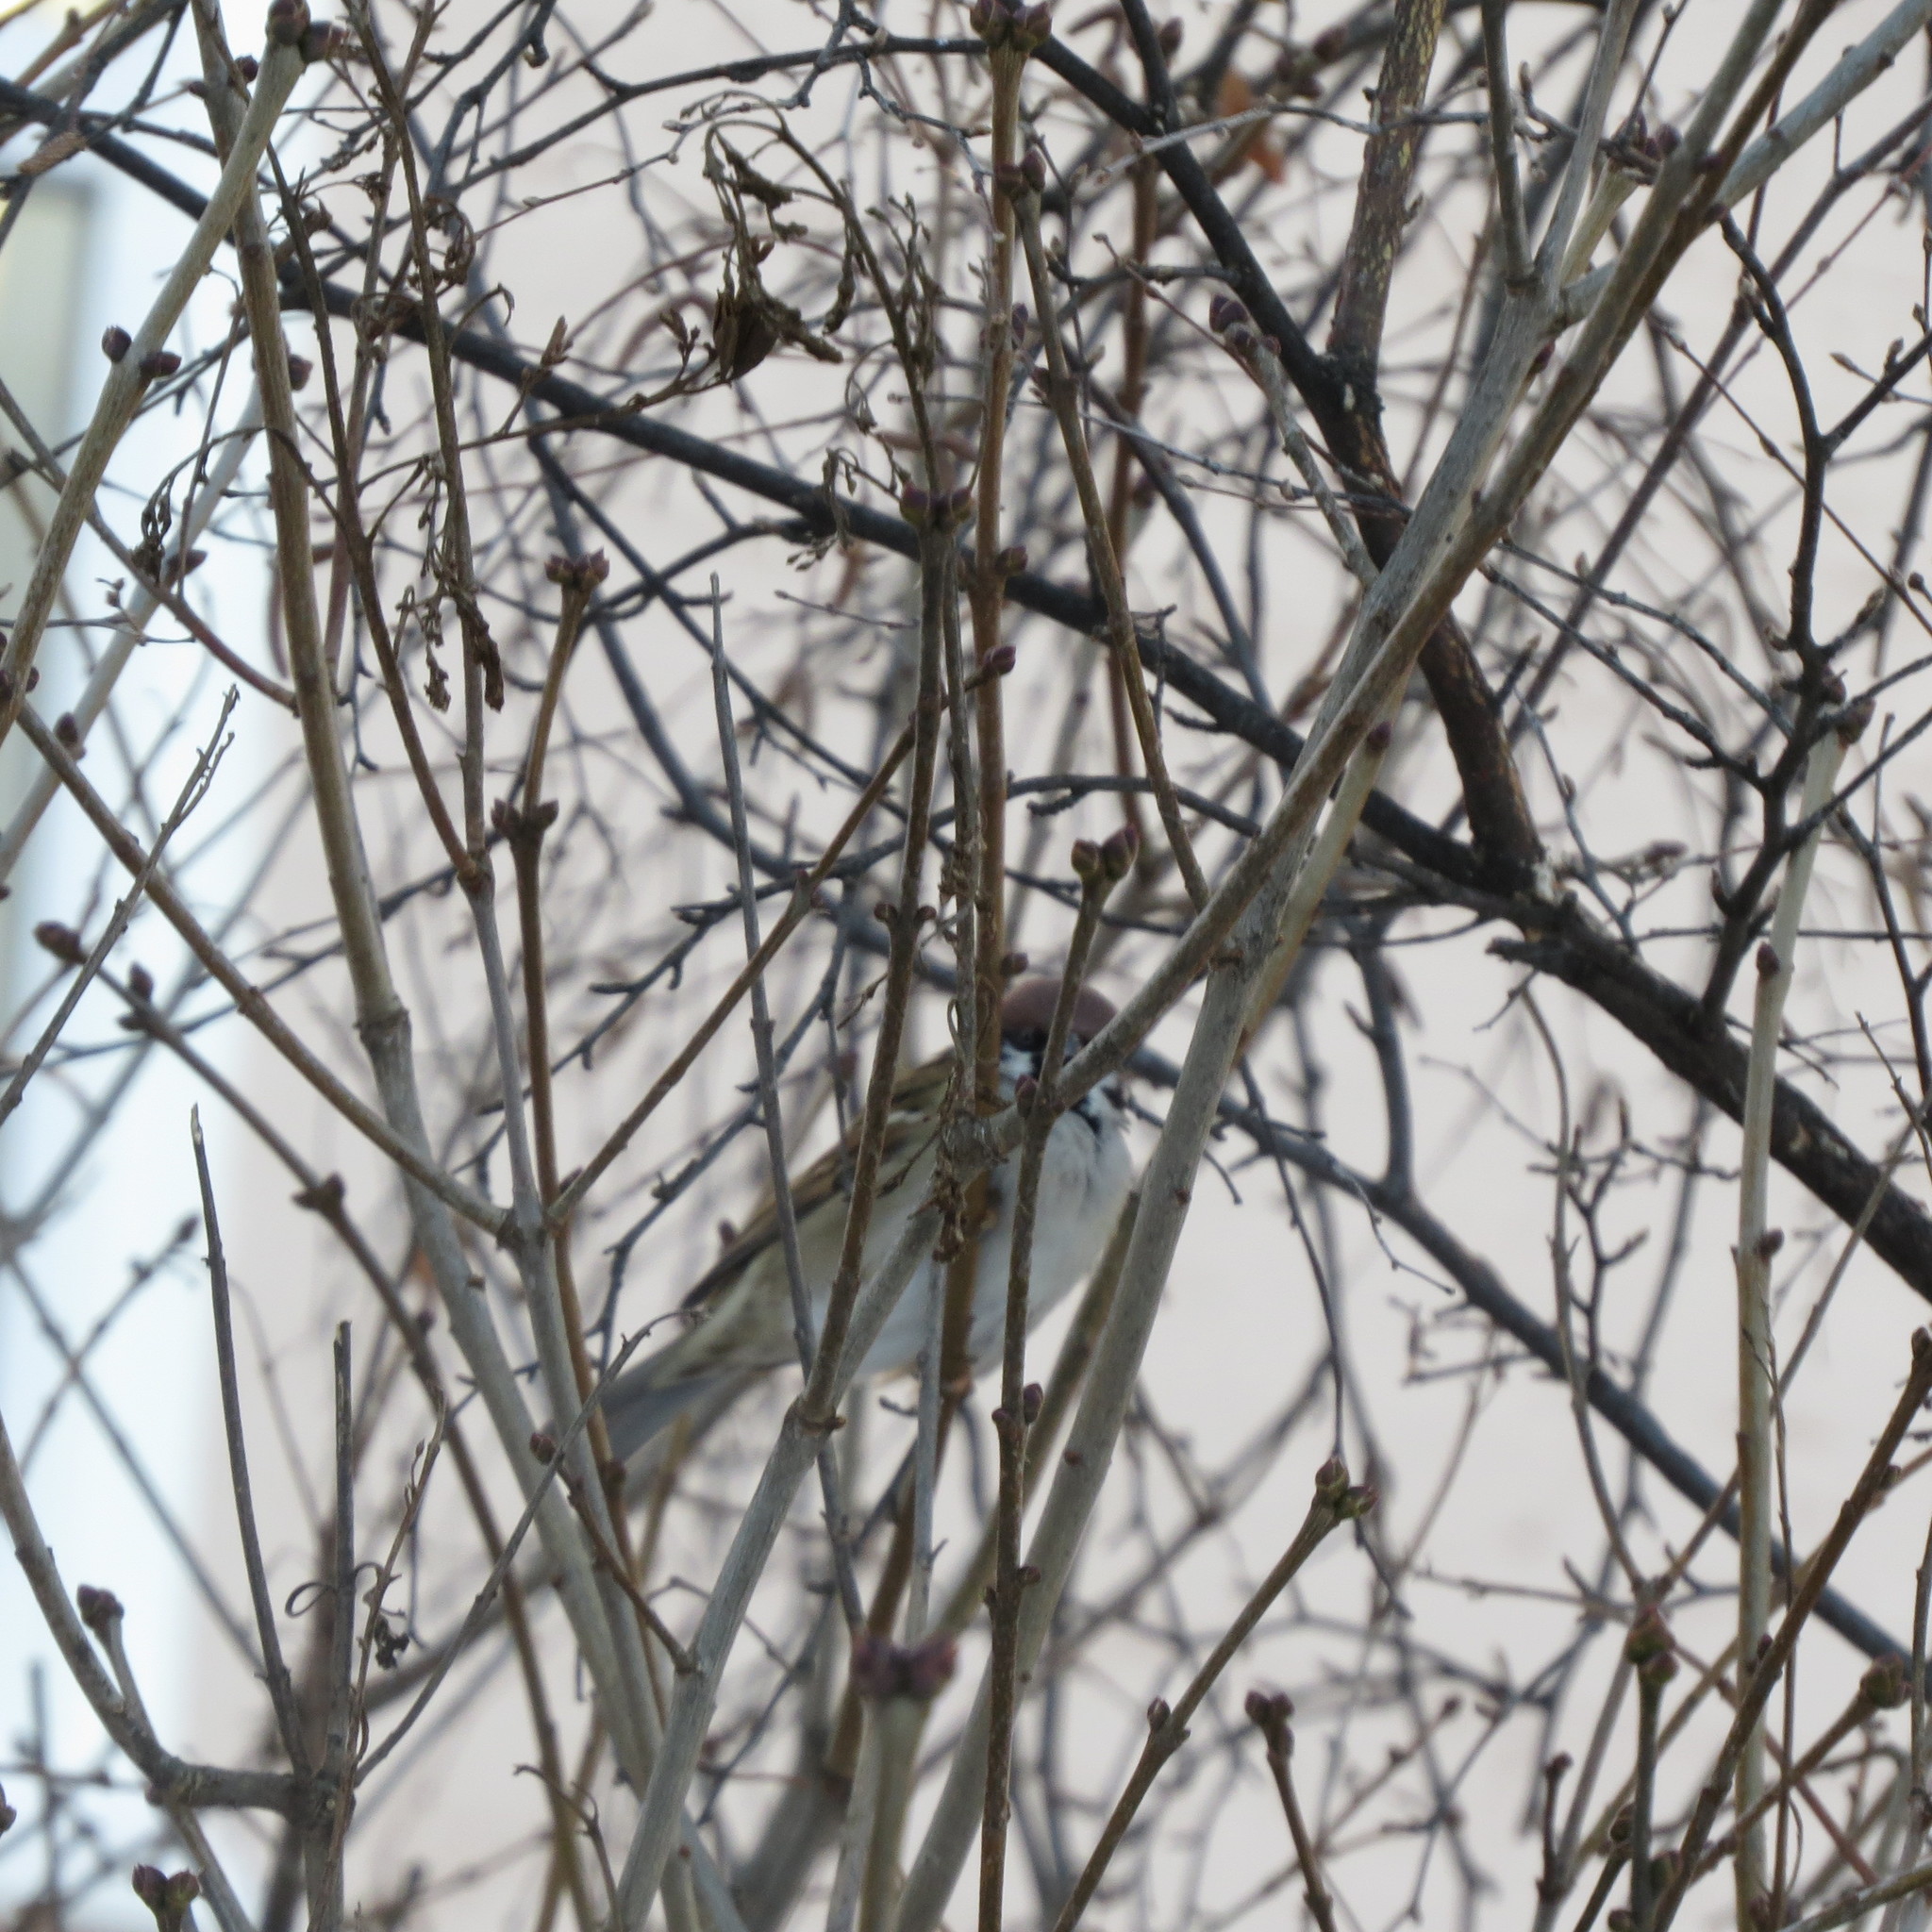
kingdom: Animalia
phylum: Chordata
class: Aves
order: Passeriformes
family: Passeridae
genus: Passer
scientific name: Passer montanus
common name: Eurasian tree sparrow
